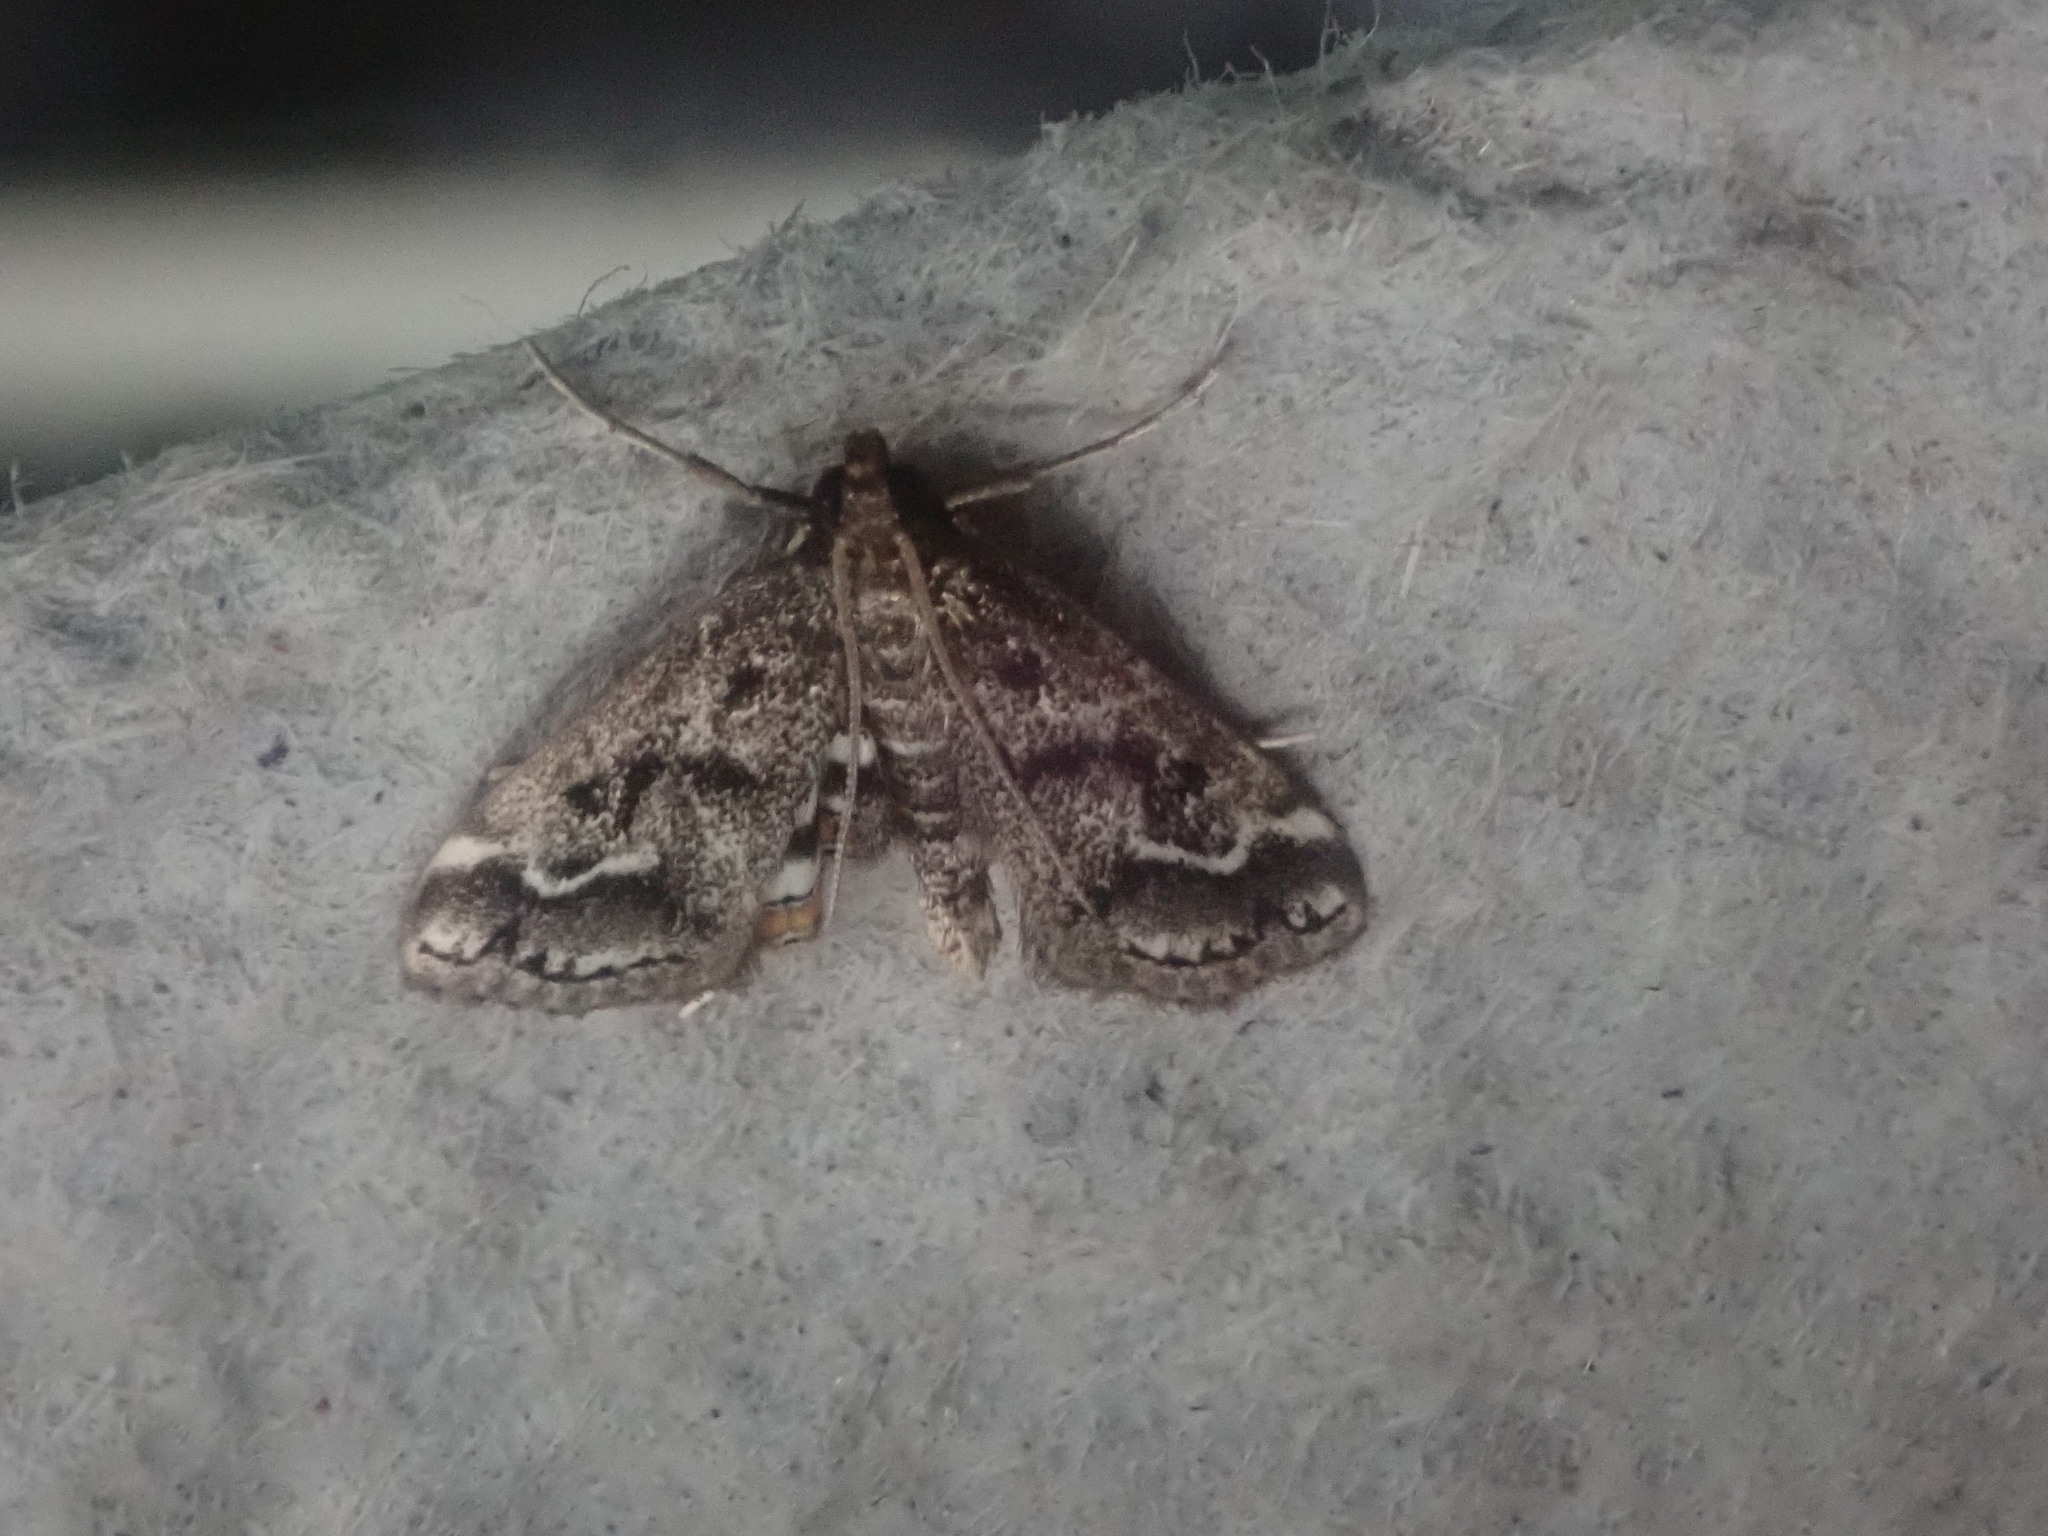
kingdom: Animalia
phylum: Arthropoda
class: Insecta
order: Lepidoptera
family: Crambidae
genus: Parapoynx
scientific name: Parapoynx obscuralis
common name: American china-mark
